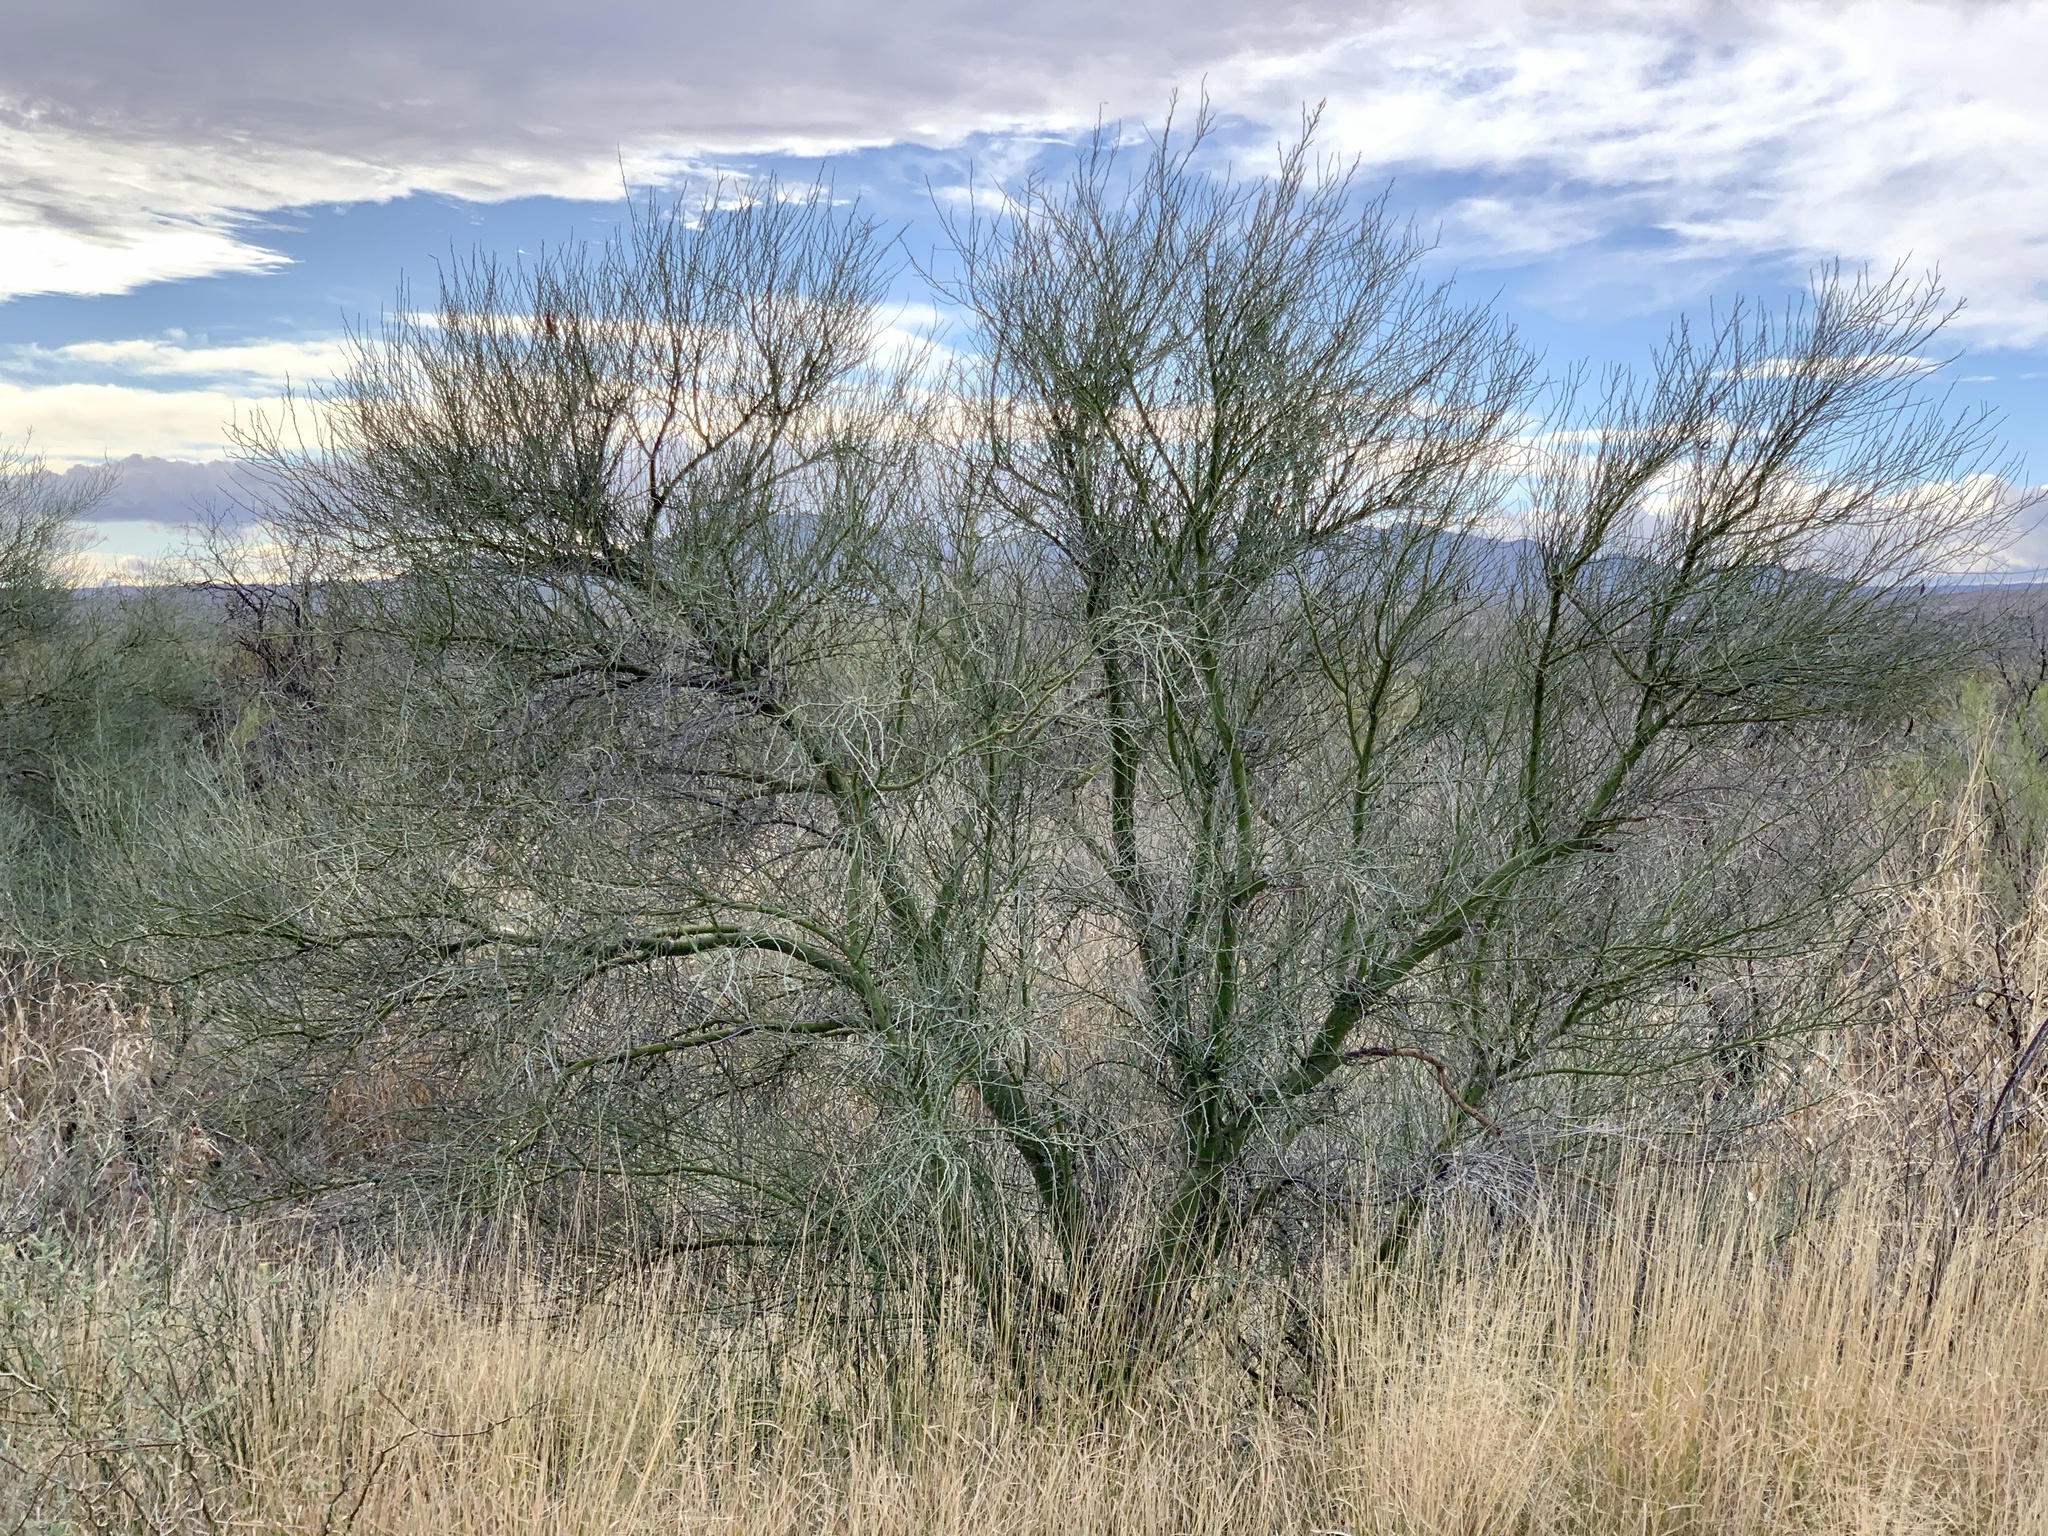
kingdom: Plantae
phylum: Tracheophyta
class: Magnoliopsida
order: Fabales
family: Fabaceae
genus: Parkinsonia
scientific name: Parkinsonia microphylla
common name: Yellow paloverde
